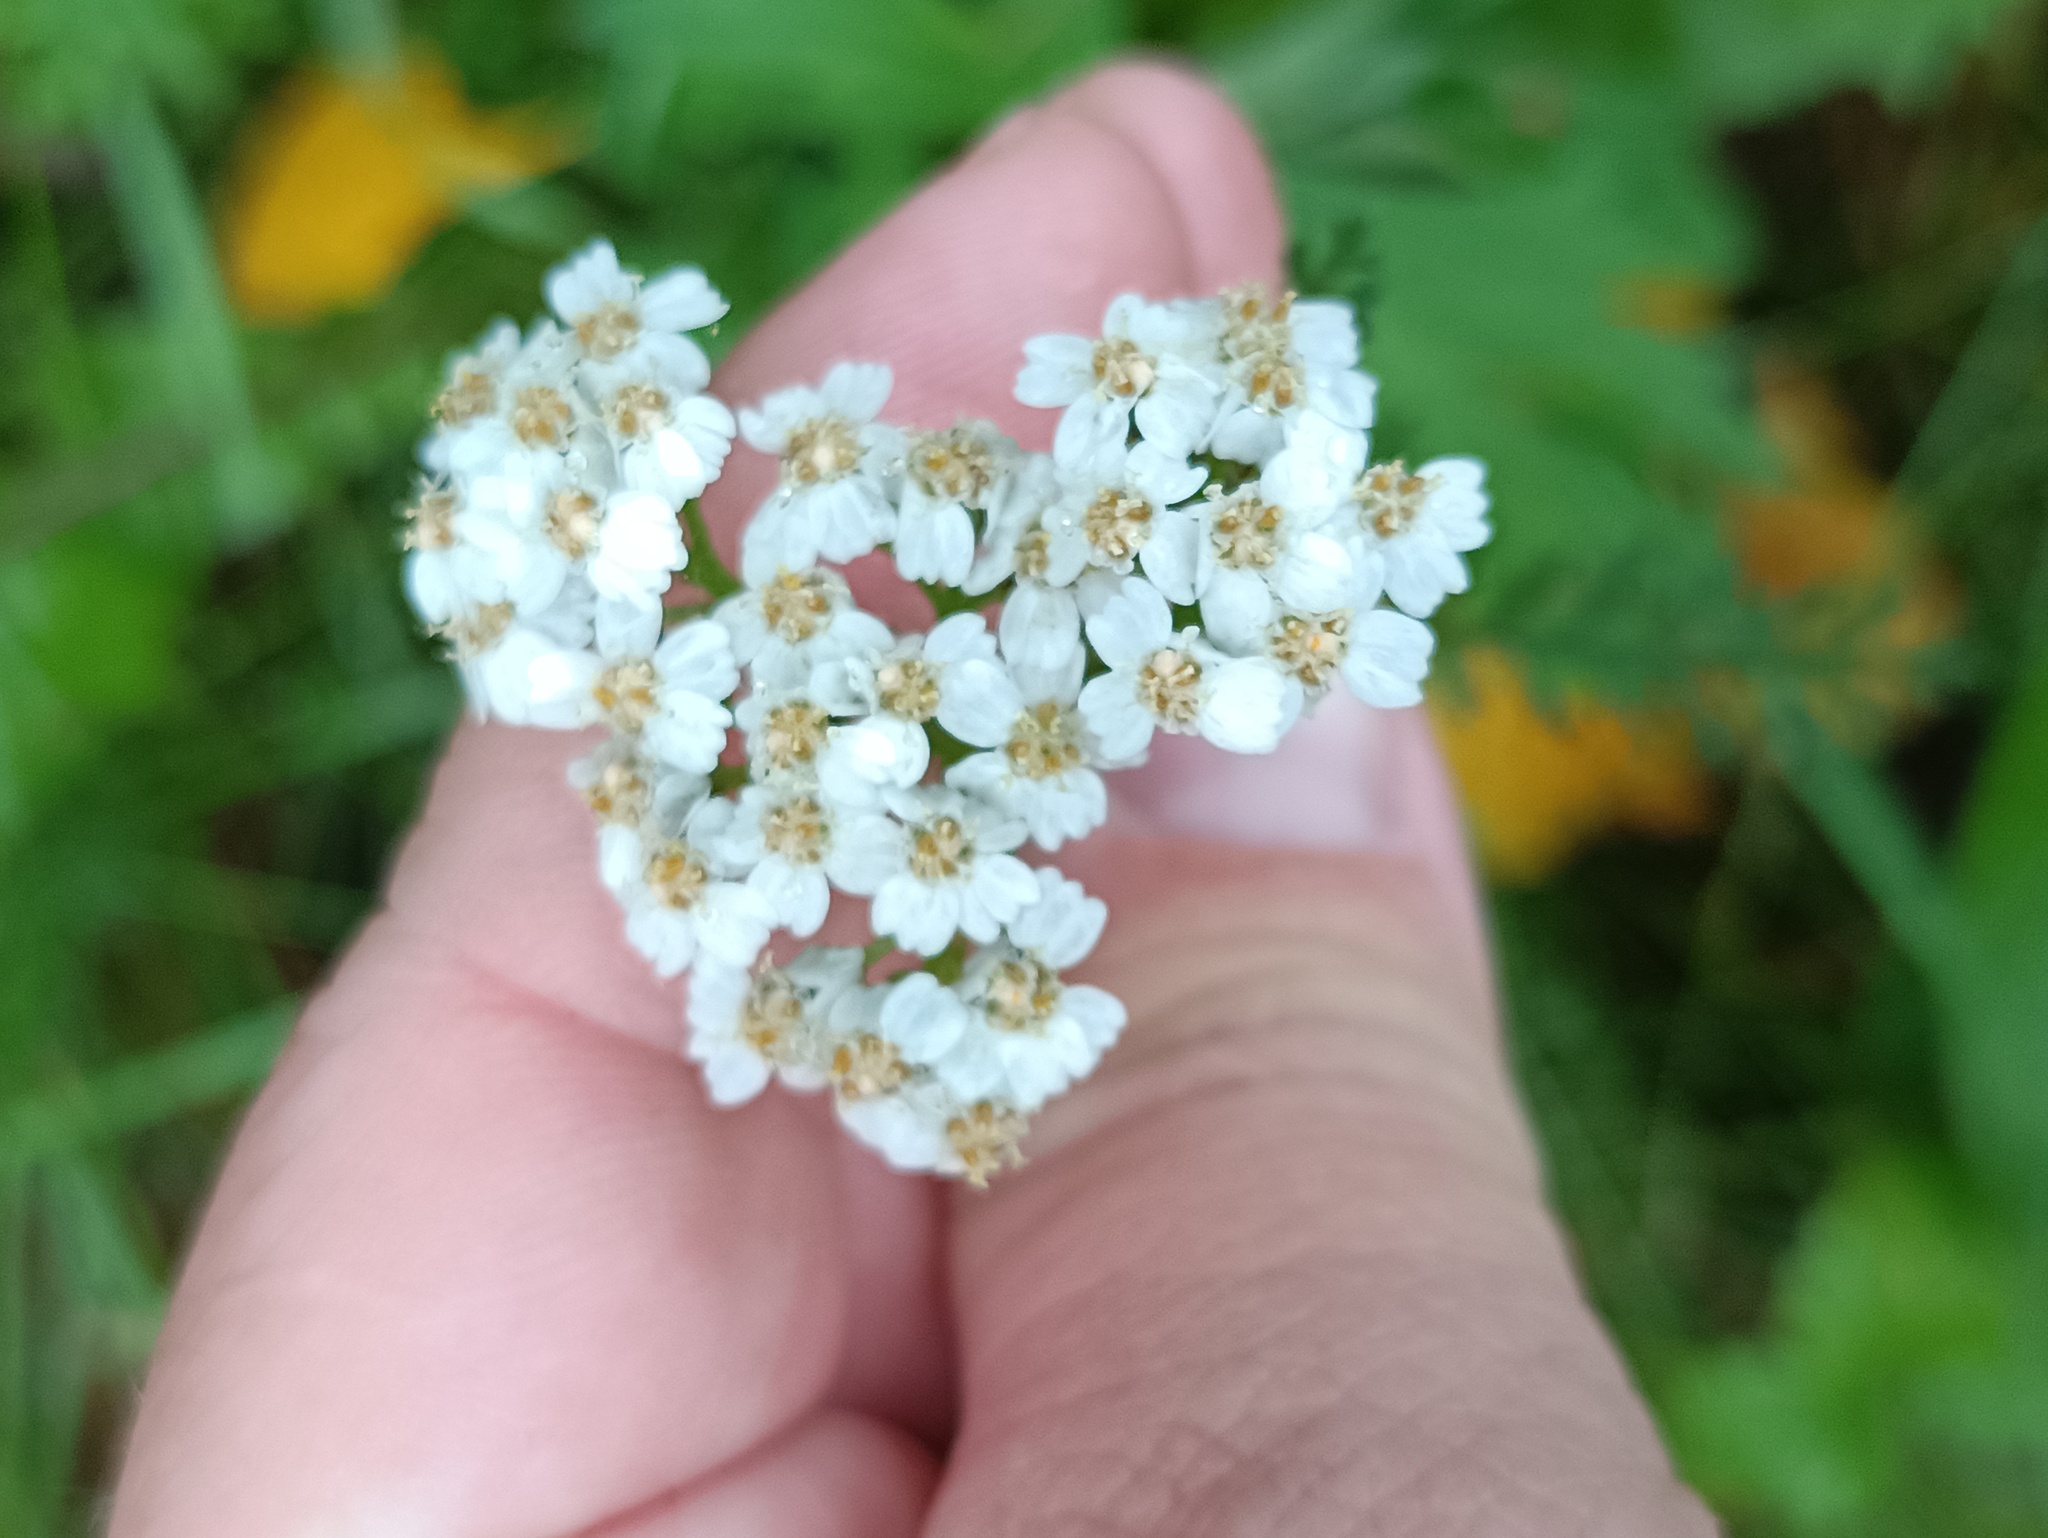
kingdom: Plantae
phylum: Tracheophyta
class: Magnoliopsida
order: Asterales
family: Asteraceae
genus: Achillea
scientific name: Achillea millefolium
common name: Yarrow
